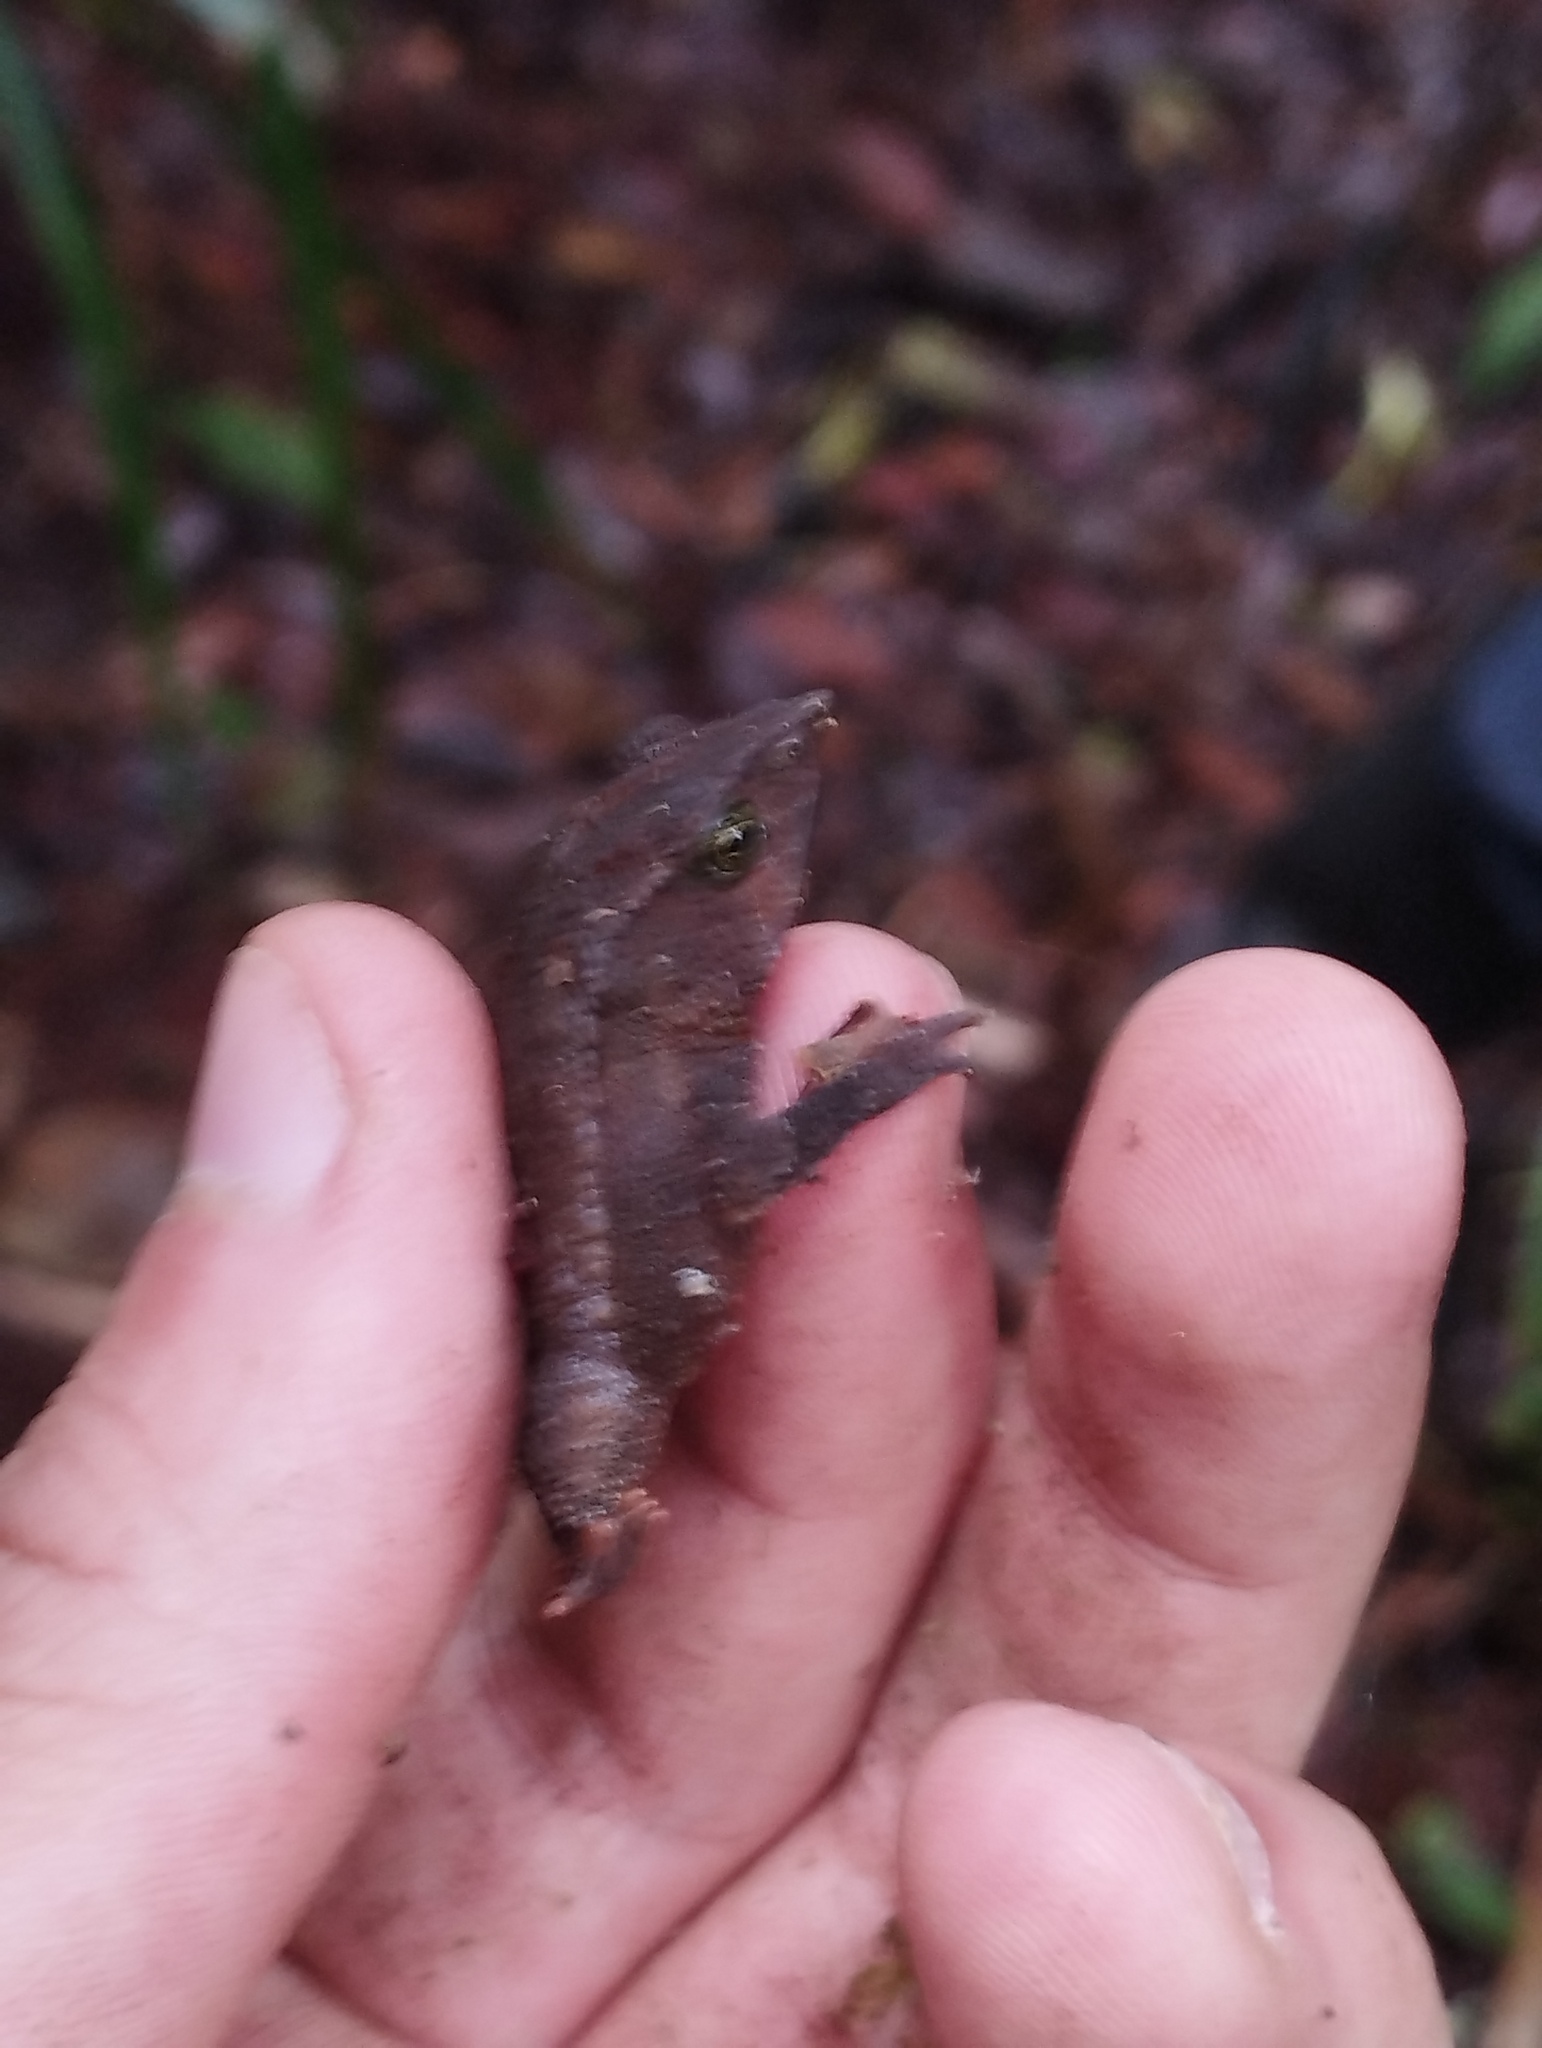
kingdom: Animalia
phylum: Chordata
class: Amphibia
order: Anura
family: Bufonidae
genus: Rhinella
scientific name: Rhinella macrorhina
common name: Billed toad
